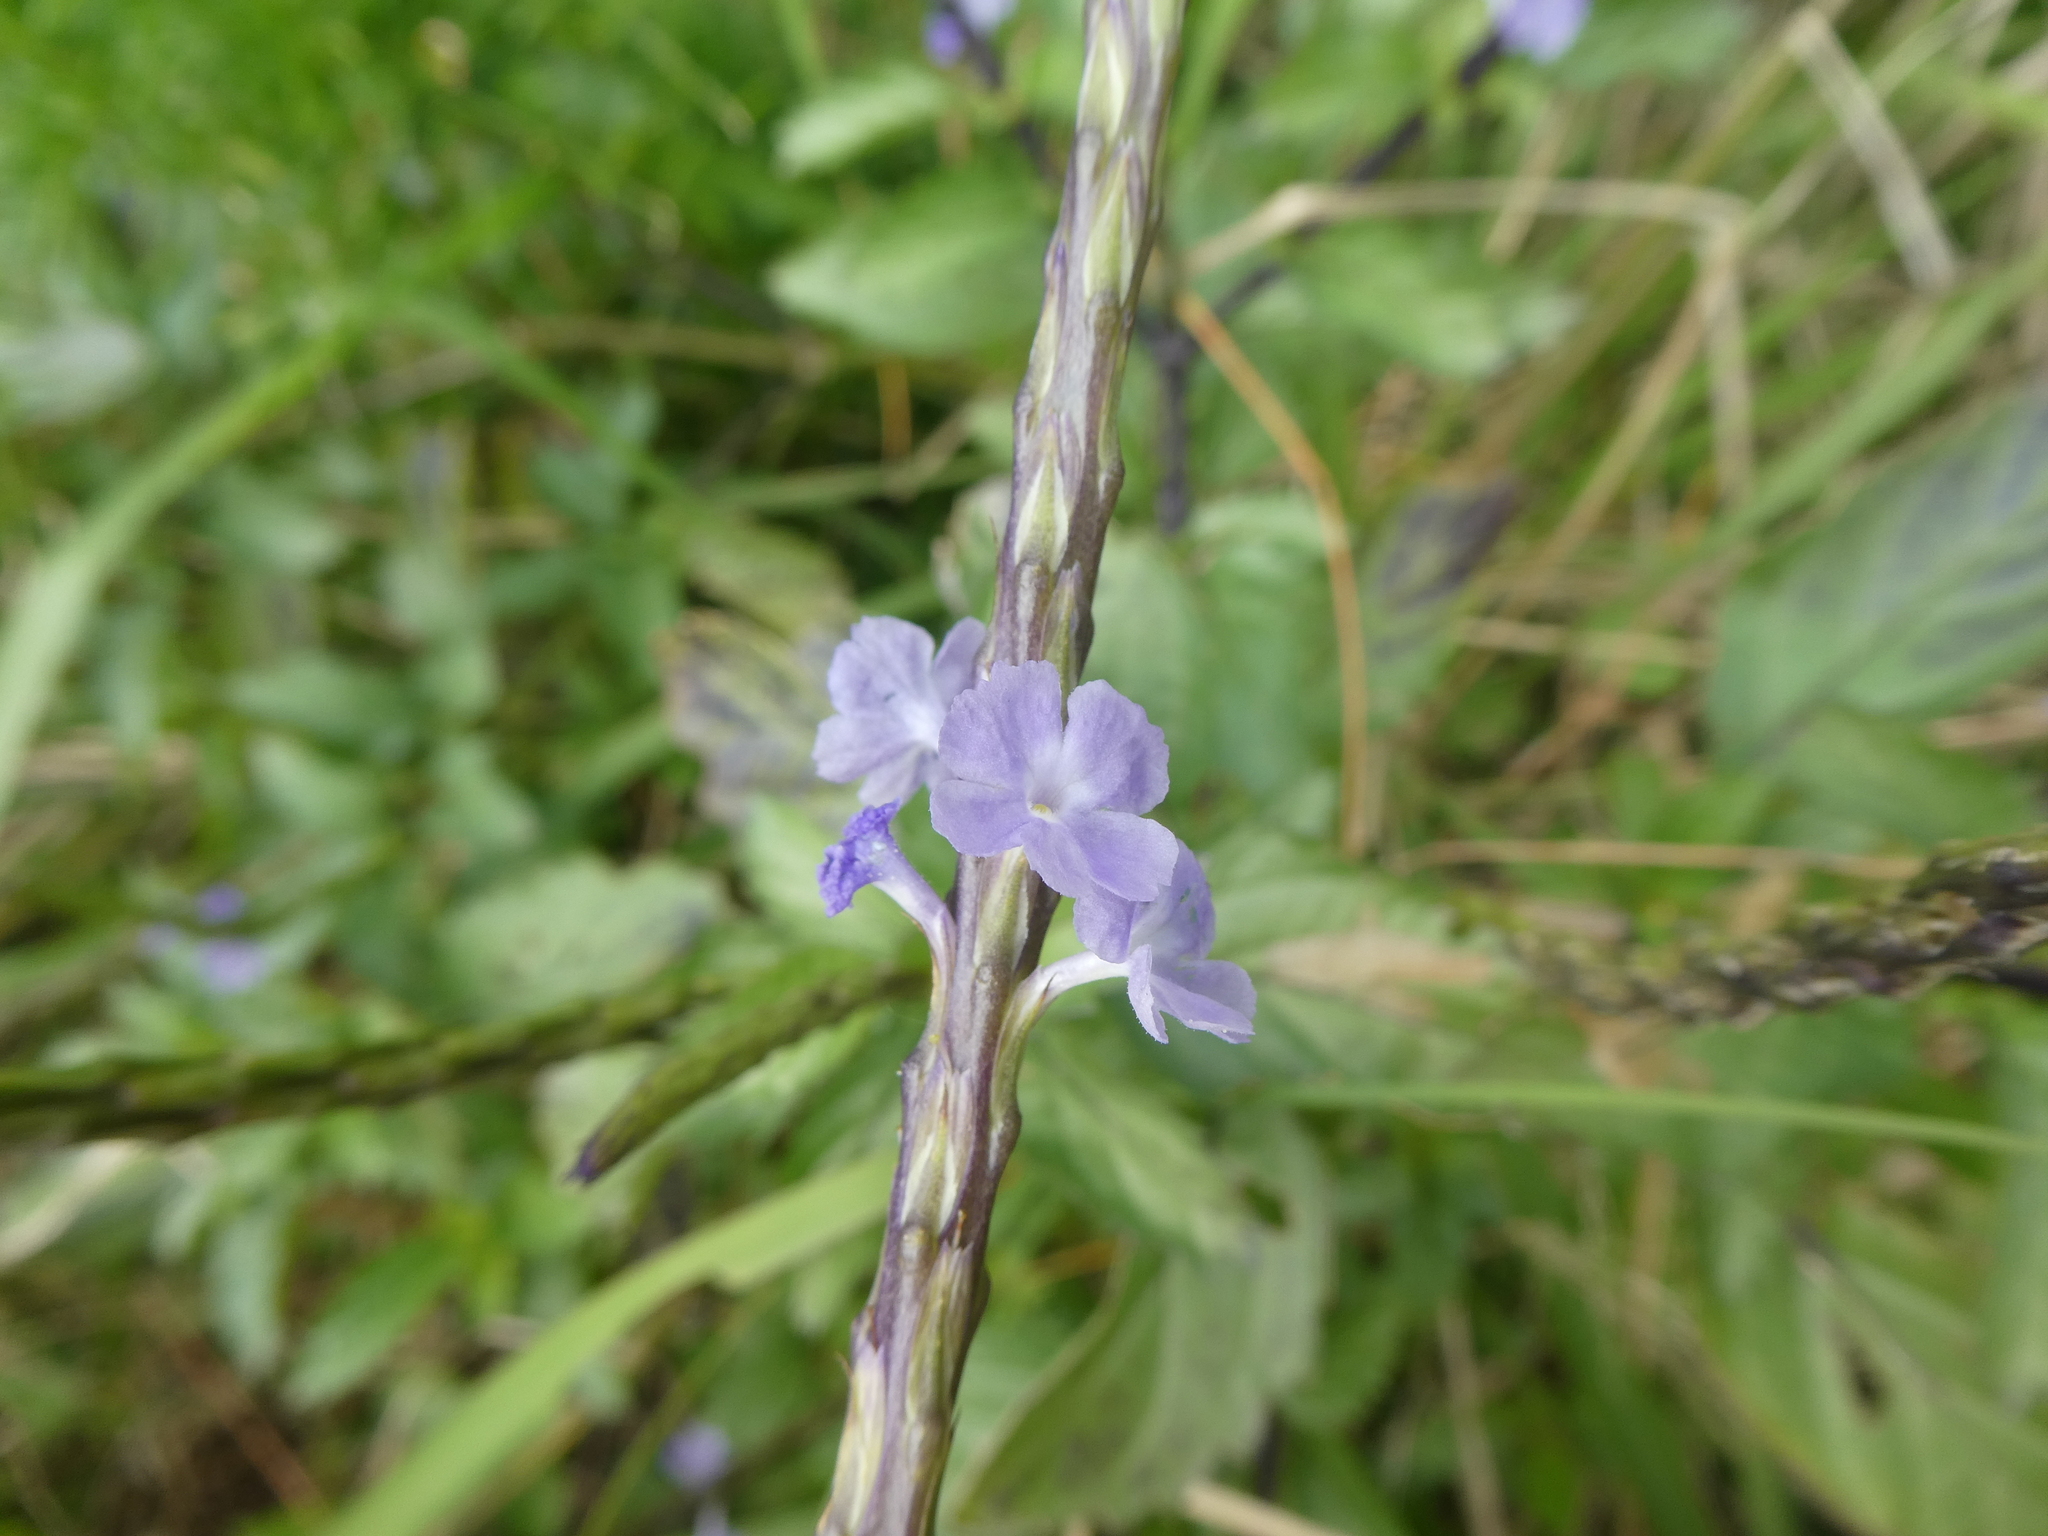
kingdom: Plantae
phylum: Tracheophyta
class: Magnoliopsida
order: Lamiales
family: Verbenaceae
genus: Stachytarpheta
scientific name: Stachytarpheta jamaicensis
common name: Light-blue snakeweed
